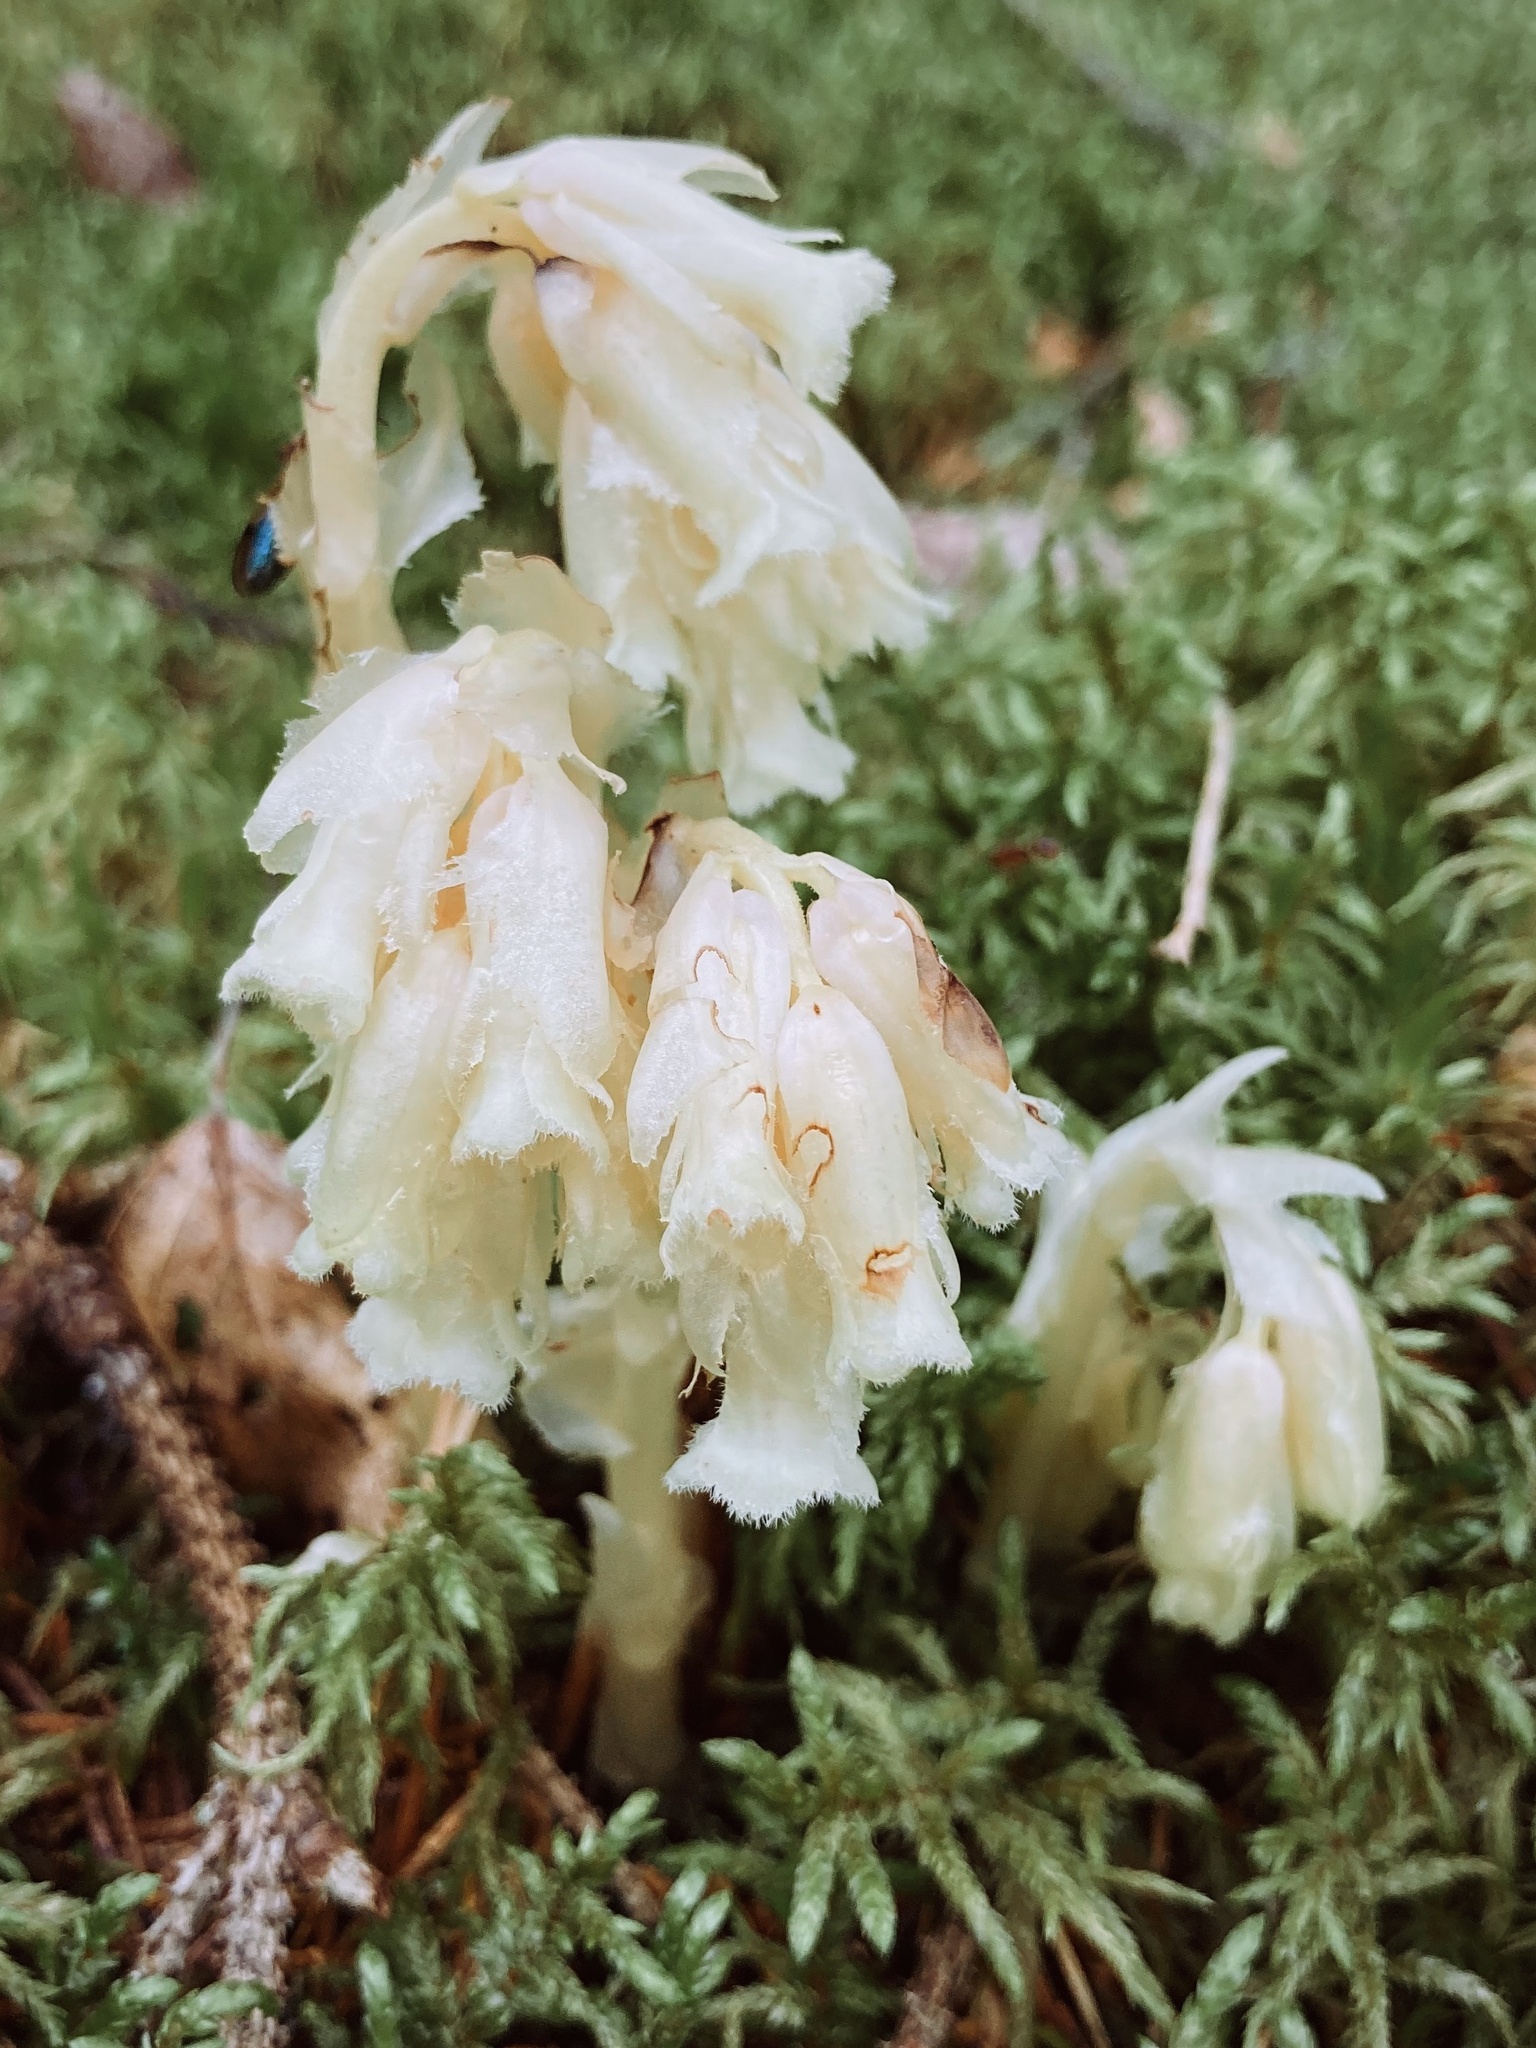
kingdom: Plantae
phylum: Tracheophyta
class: Magnoliopsida
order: Ericales
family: Ericaceae
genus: Hypopitys
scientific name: Hypopitys monotropa
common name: Yellow bird's-nest
